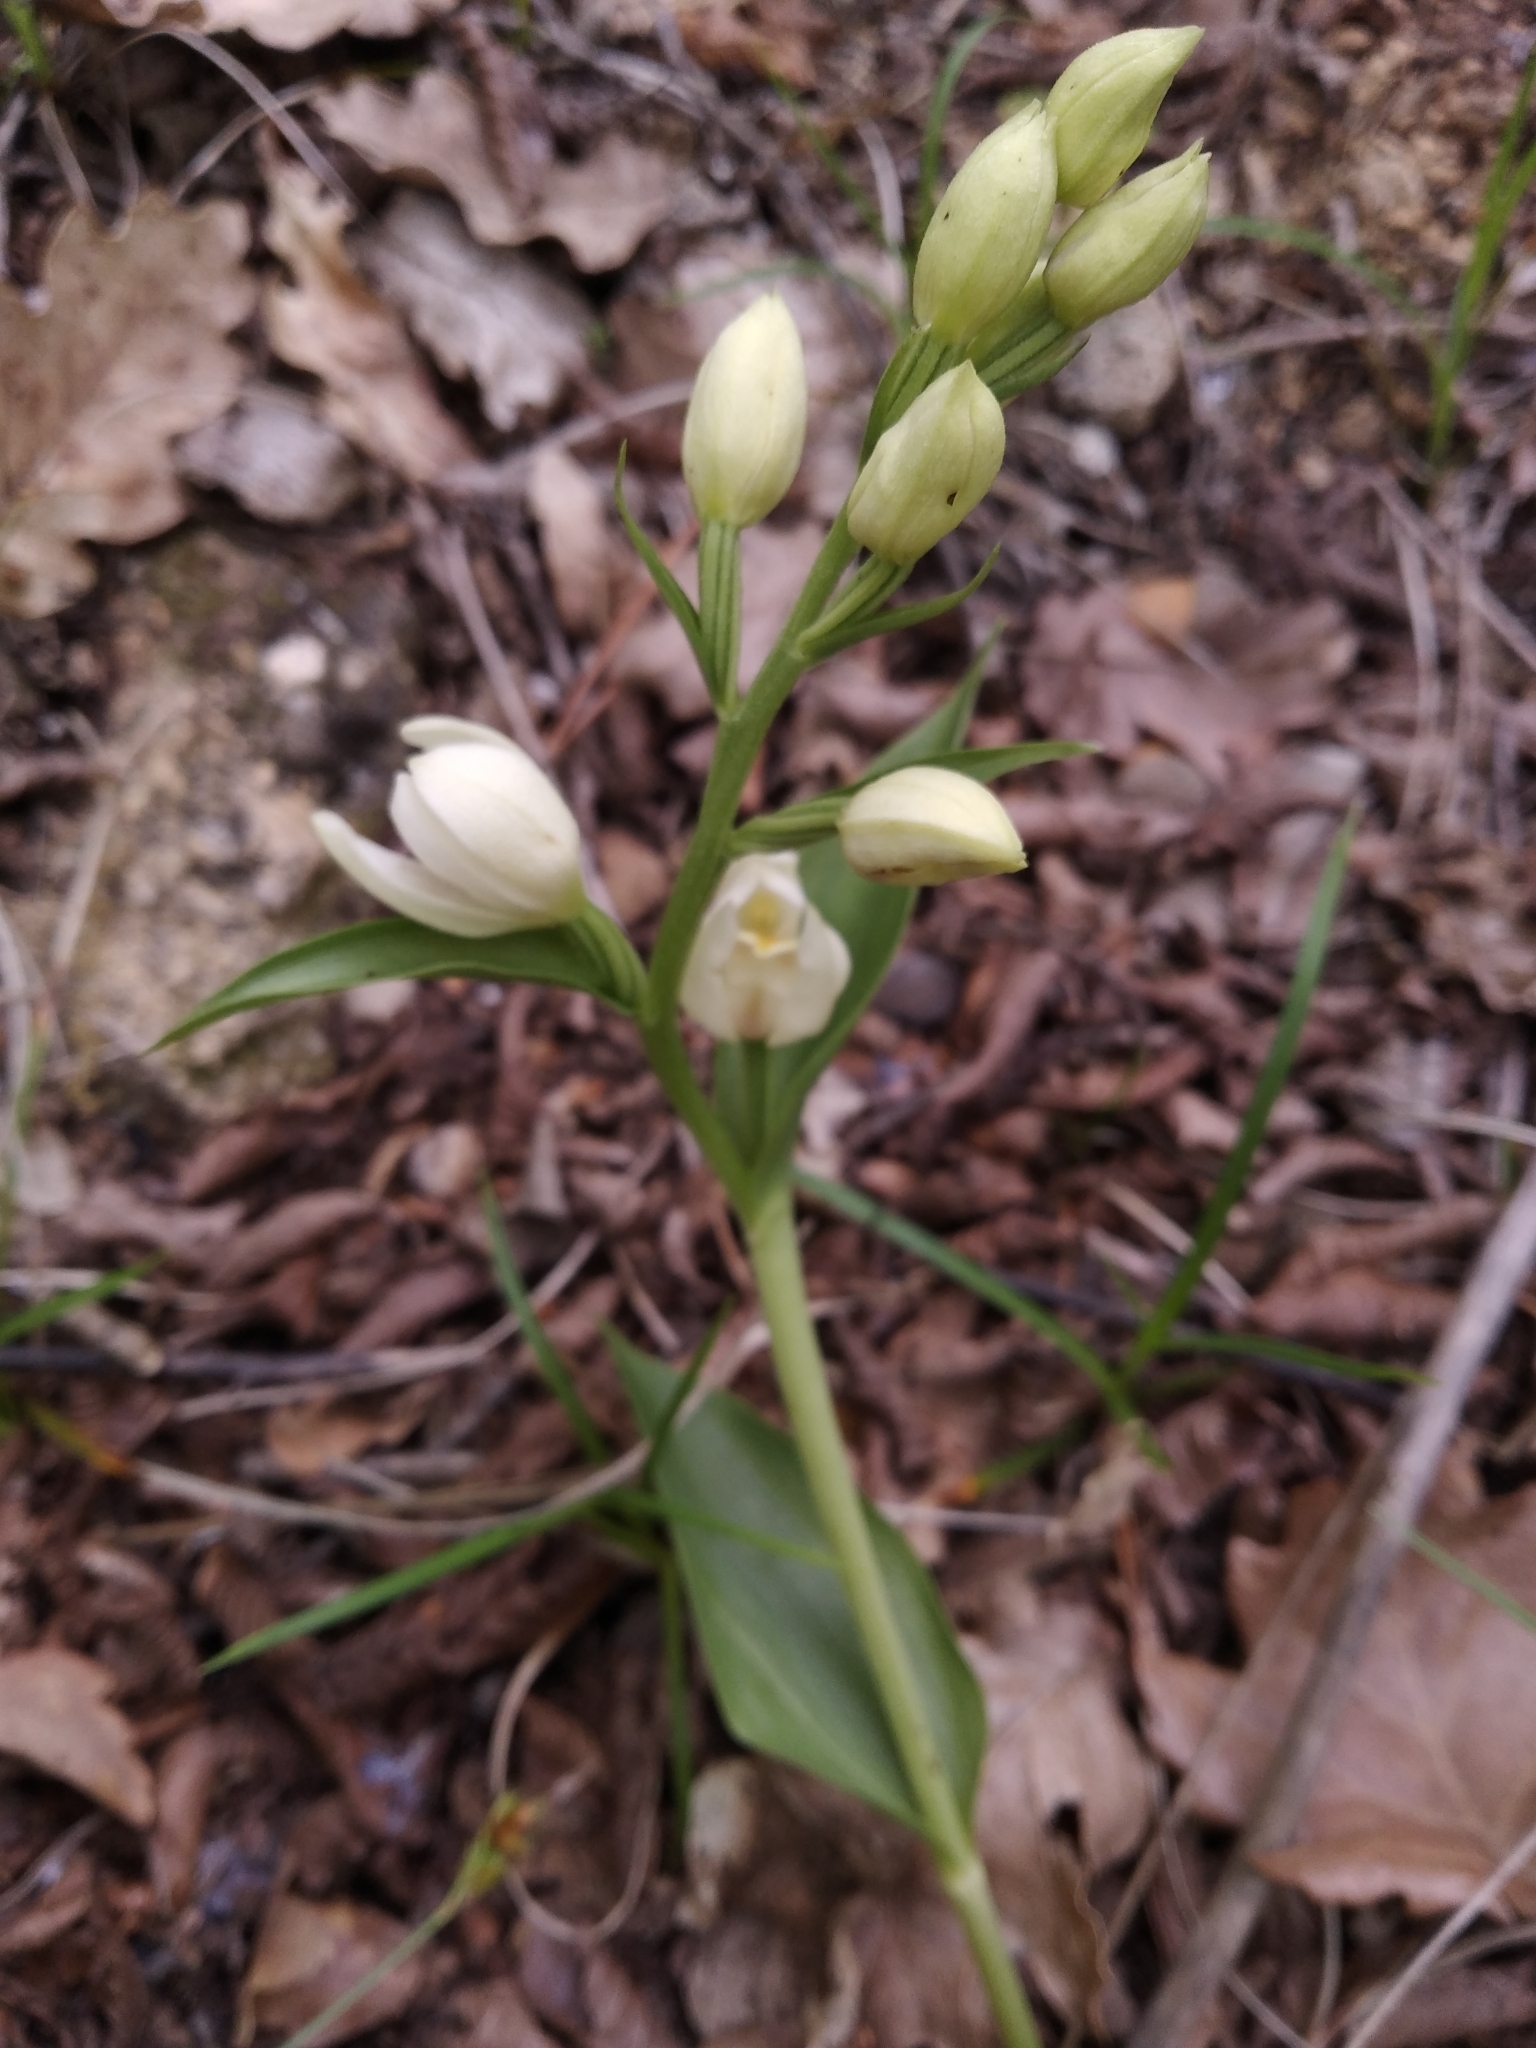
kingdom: Plantae
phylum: Tracheophyta
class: Liliopsida
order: Asparagales
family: Orchidaceae
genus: Cephalanthera
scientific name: Cephalanthera damasonium
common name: White helleborine
